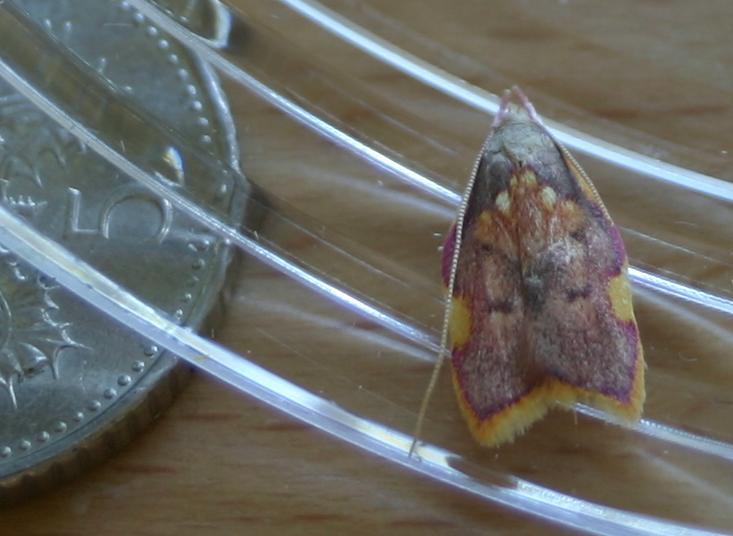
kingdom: Animalia
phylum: Arthropoda
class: Insecta
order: Lepidoptera
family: Peleopodidae
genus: Carcina
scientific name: Carcina quercana
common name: Moth
